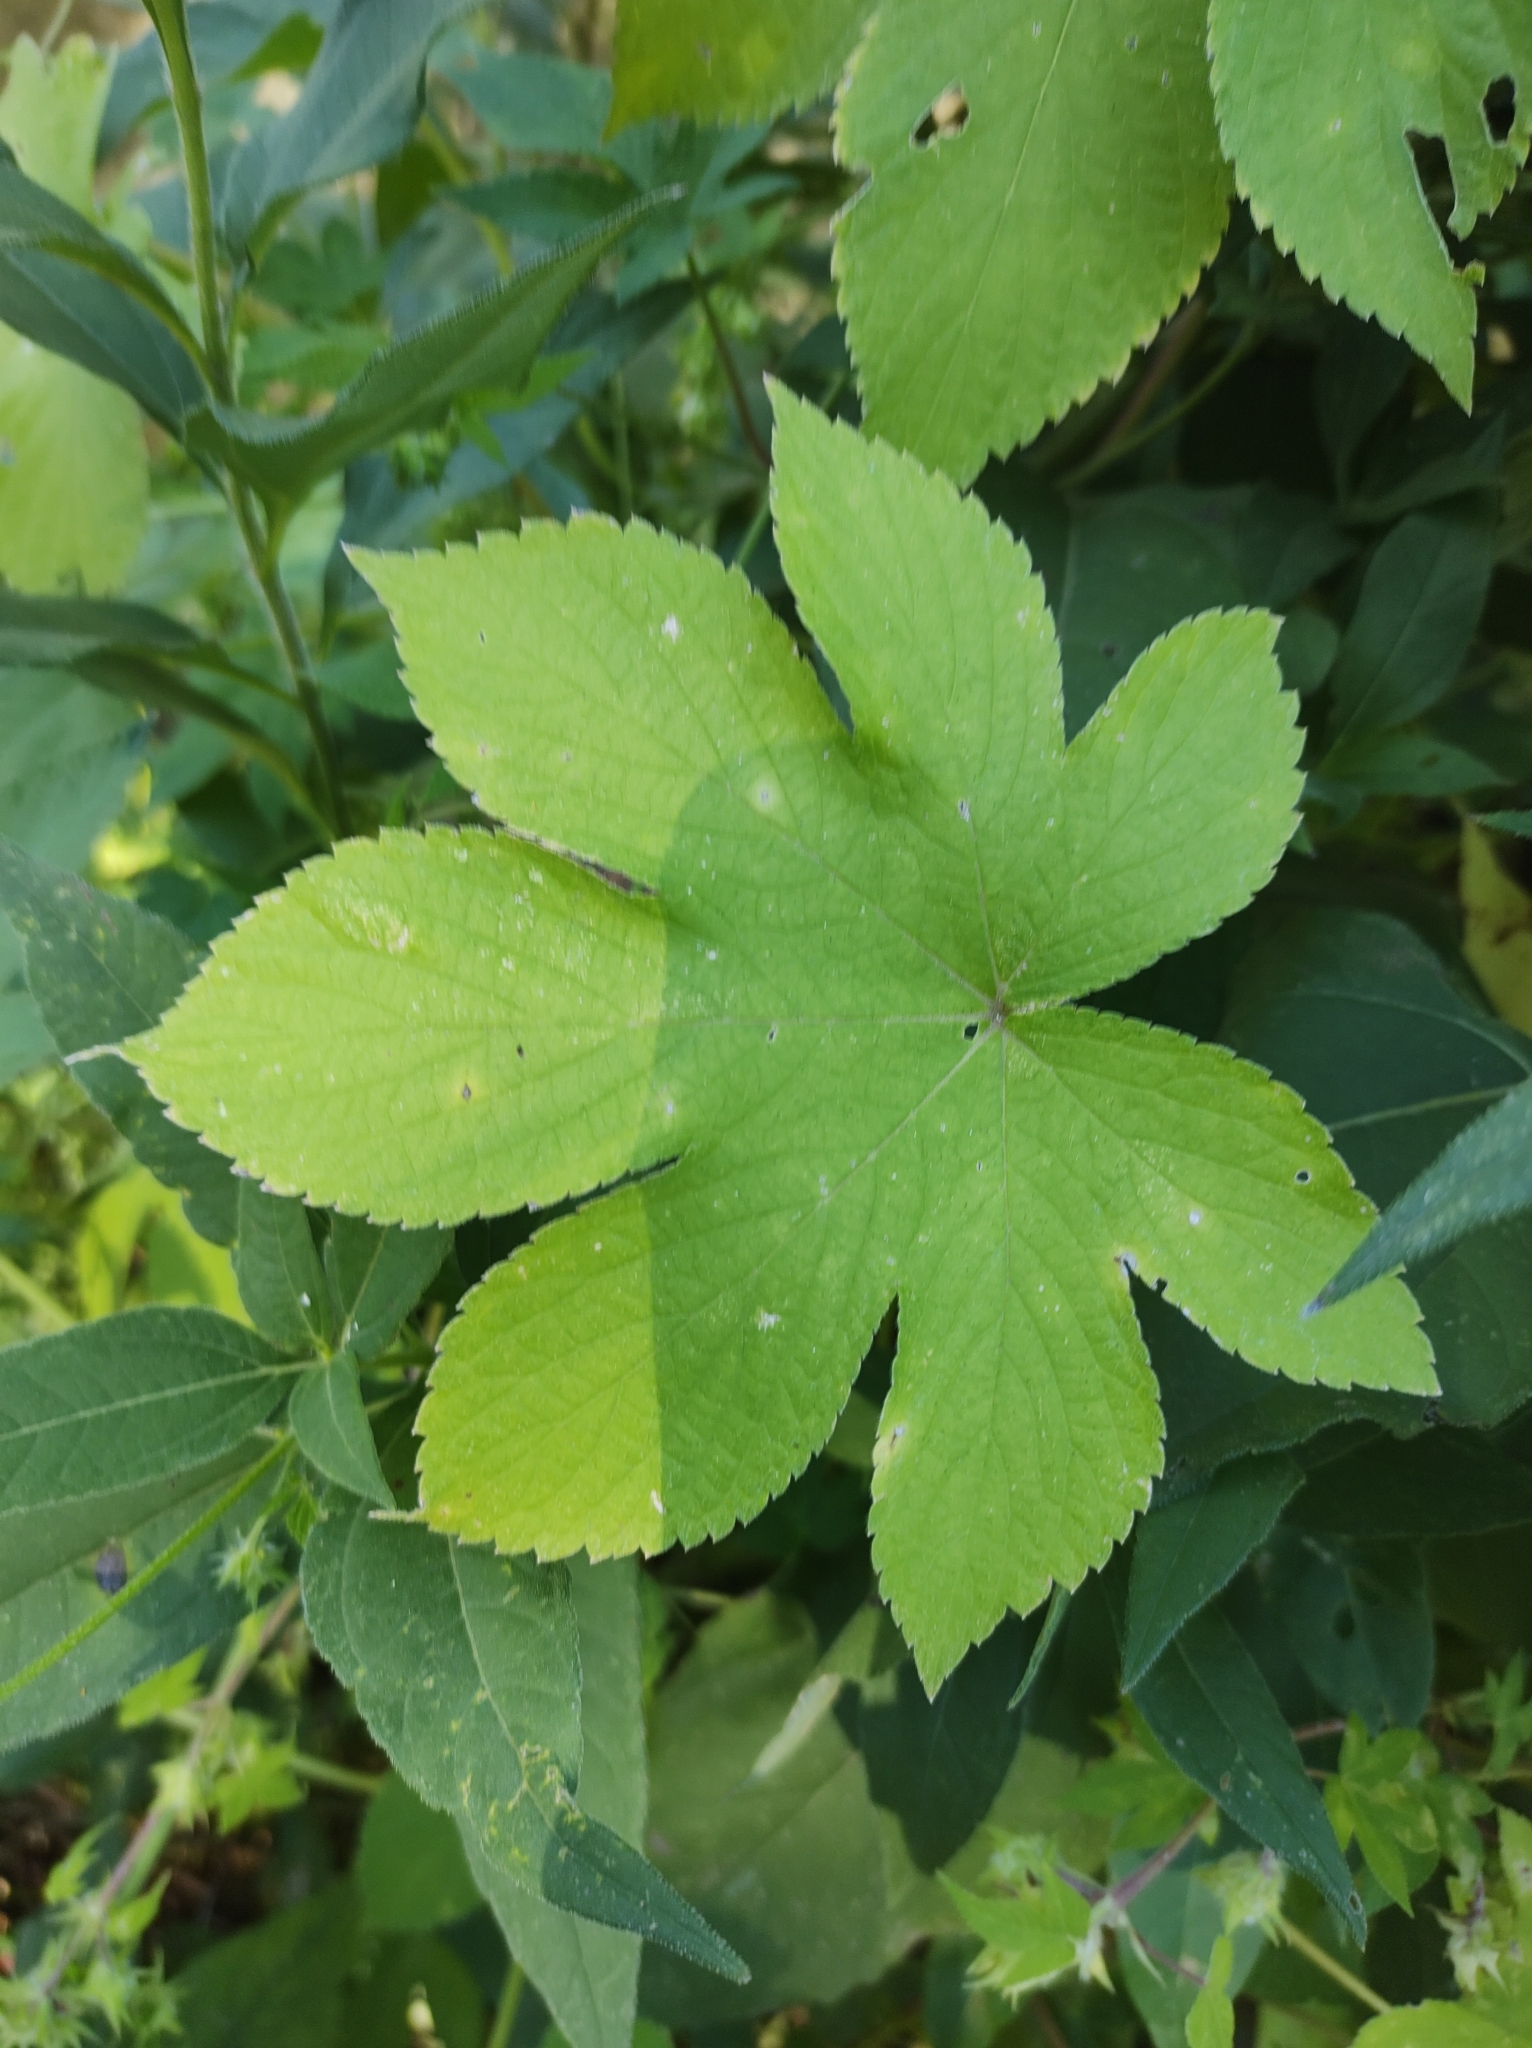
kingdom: Plantae
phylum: Tracheophyta
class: Magnoliopsida
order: Rosales
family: Cannabaceae
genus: Humulus
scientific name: Humulus scandens
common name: Japanese hop
